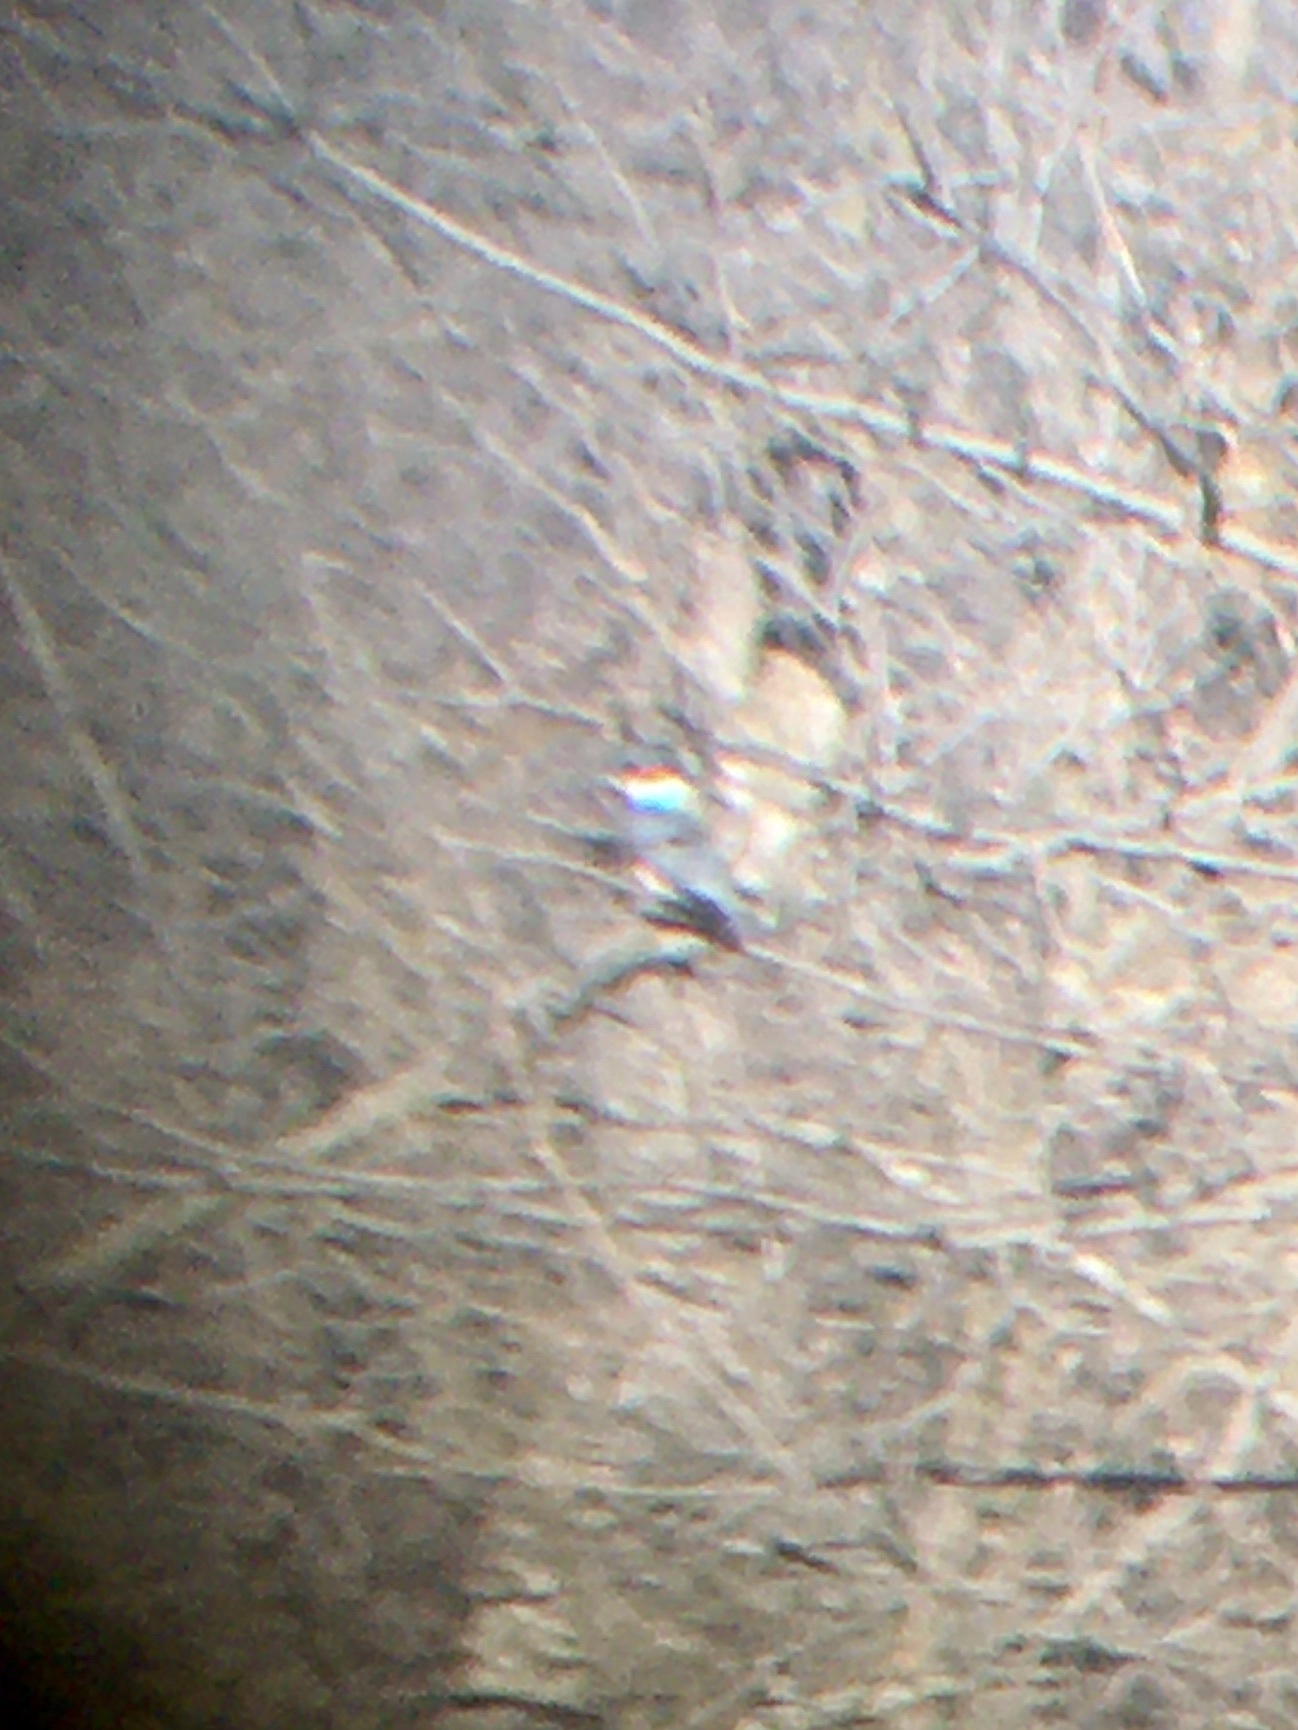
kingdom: Animalia
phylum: Chordata
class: Aves
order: Coraciiformes
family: Alcedinidae
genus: Megaceryle
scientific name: Megaceryle alcyon
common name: Belted kingfisher
